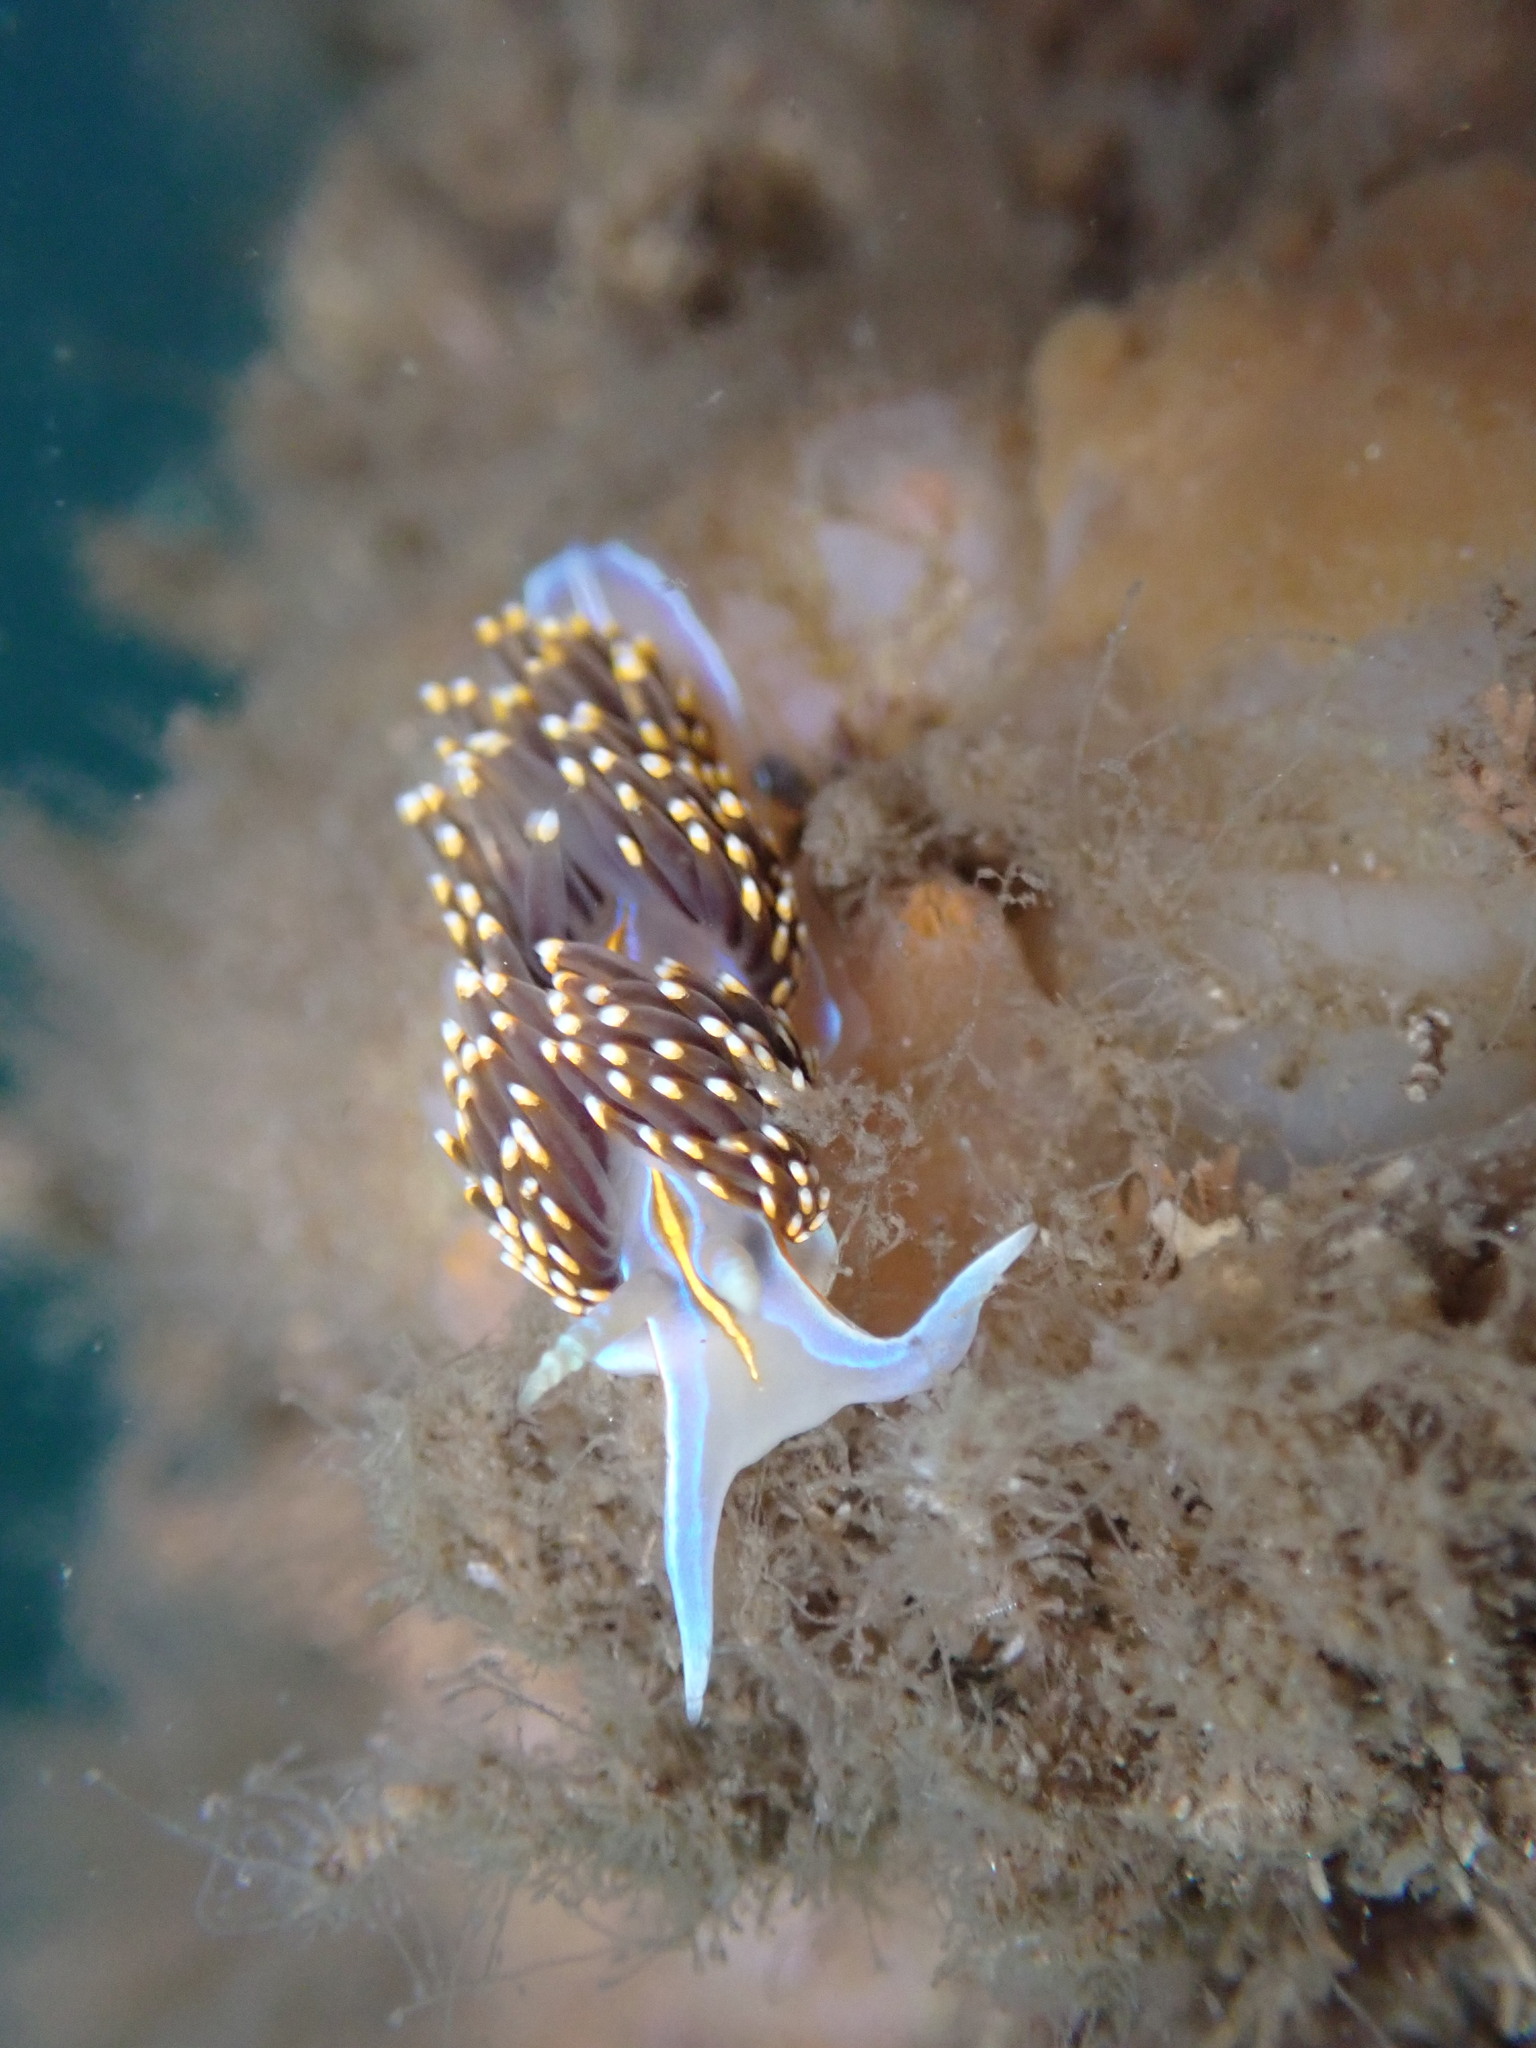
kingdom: Animalia
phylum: Mollusca
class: Gastropoda
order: Nudibranchia
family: Myrrhinidae
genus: Hermissenda
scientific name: Hermissenda opalescens
